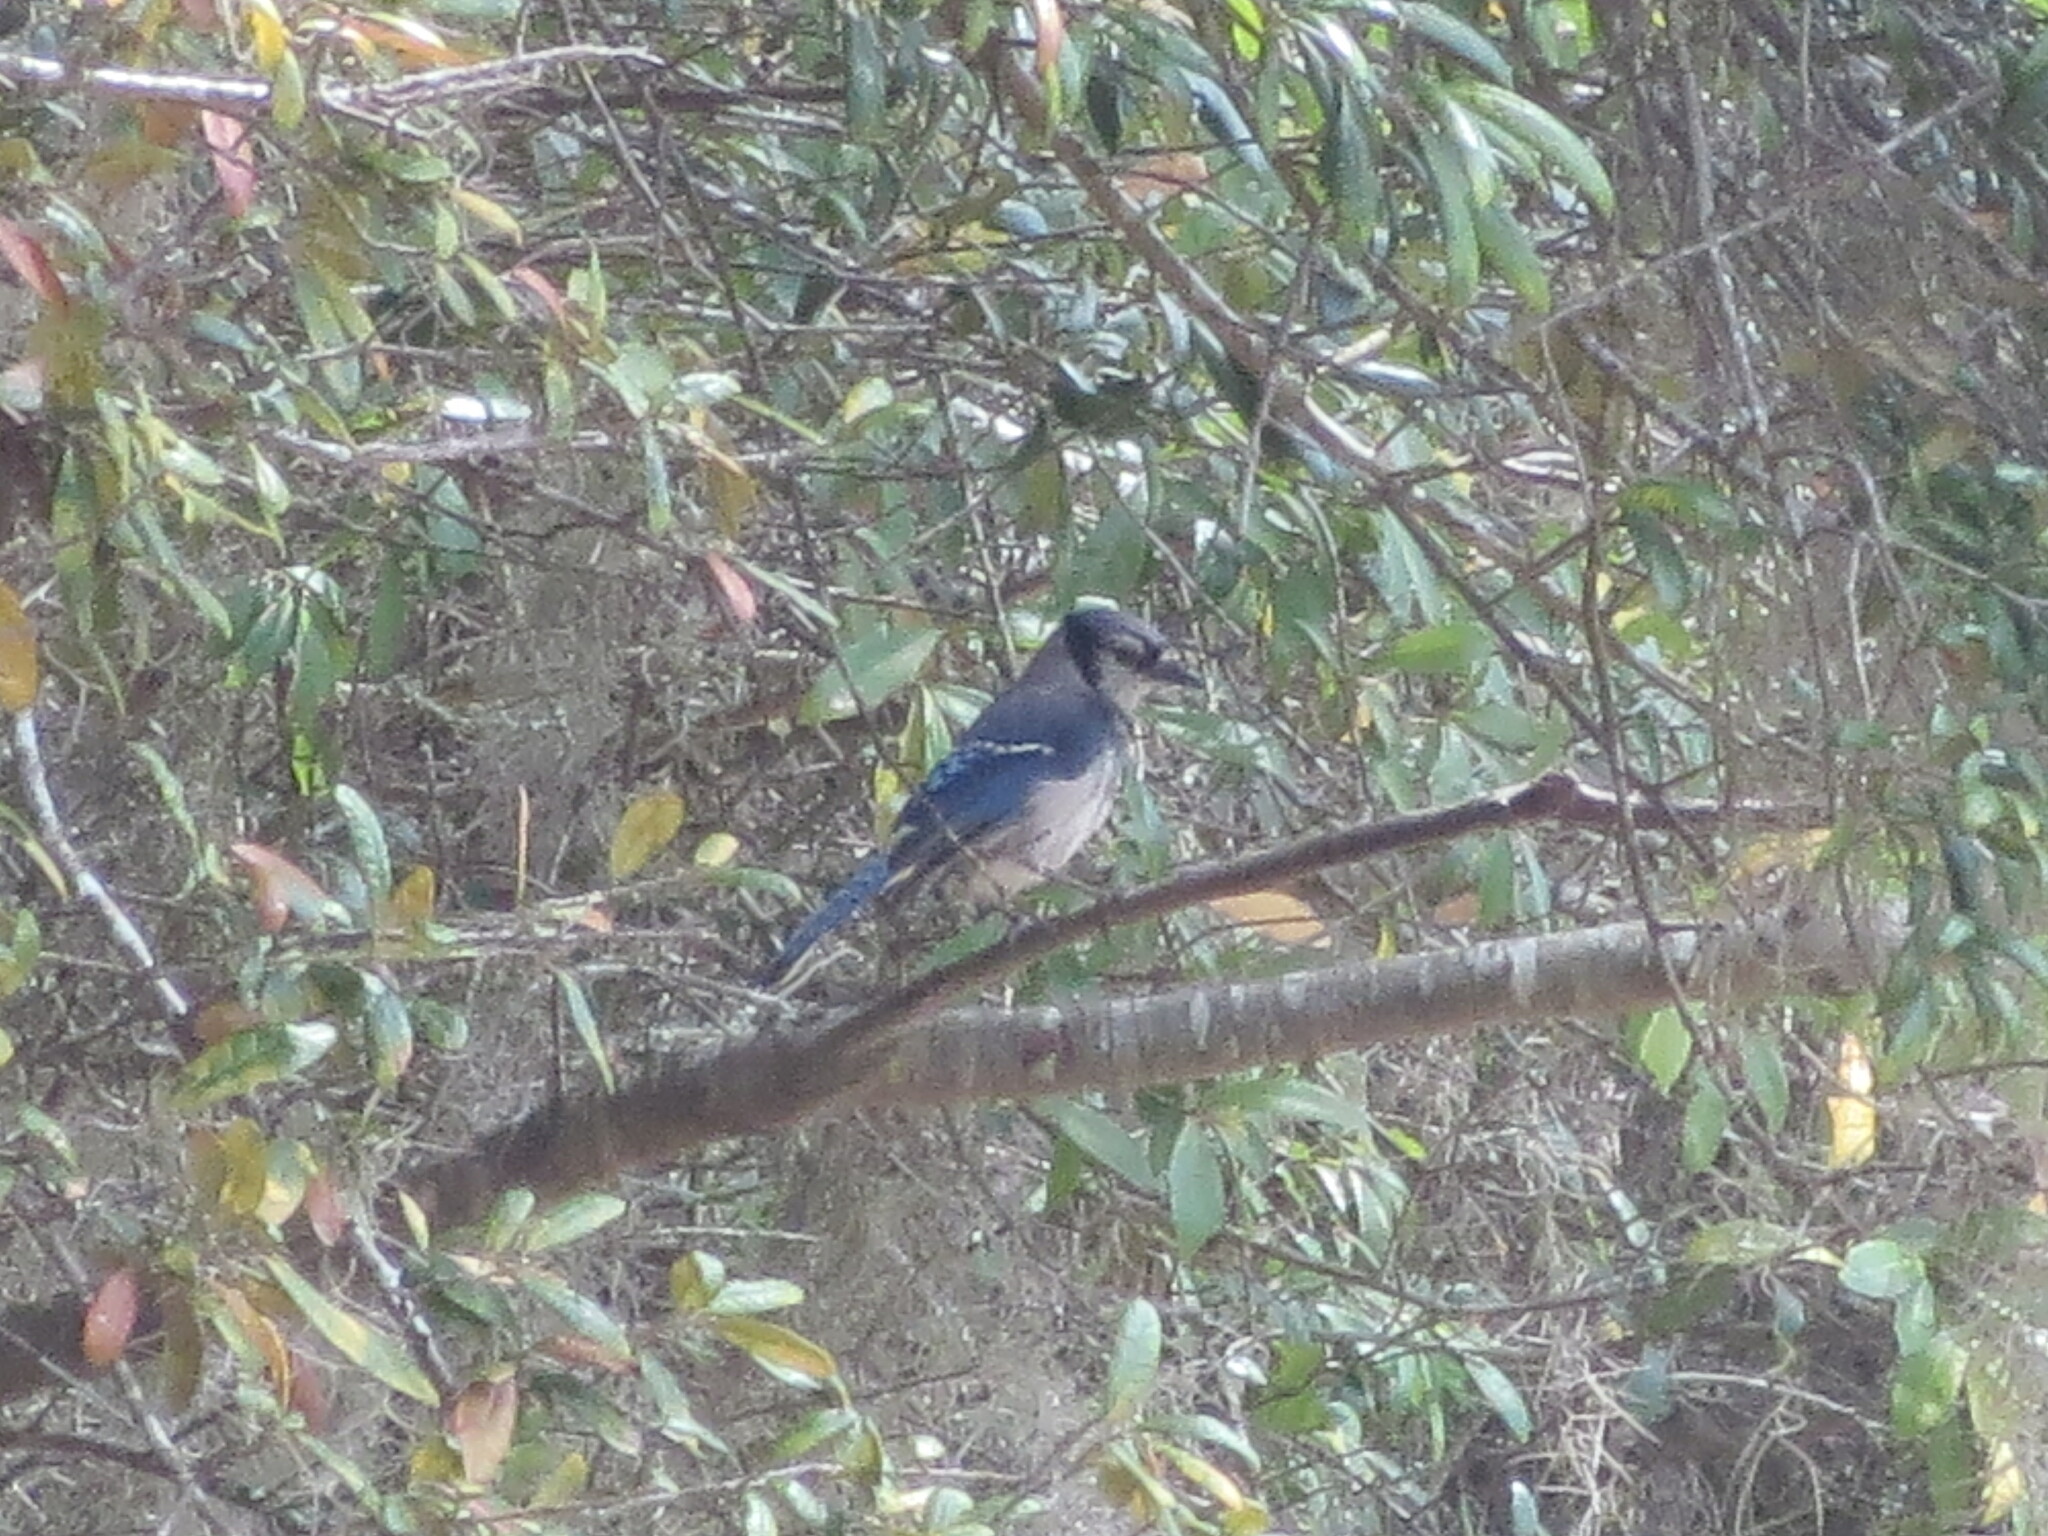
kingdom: Animalia
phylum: Chordata
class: Aves
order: Passeriformes
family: Corvidae
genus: Cyanocitta
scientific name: Cyanocitta cristata
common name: Blue jay
